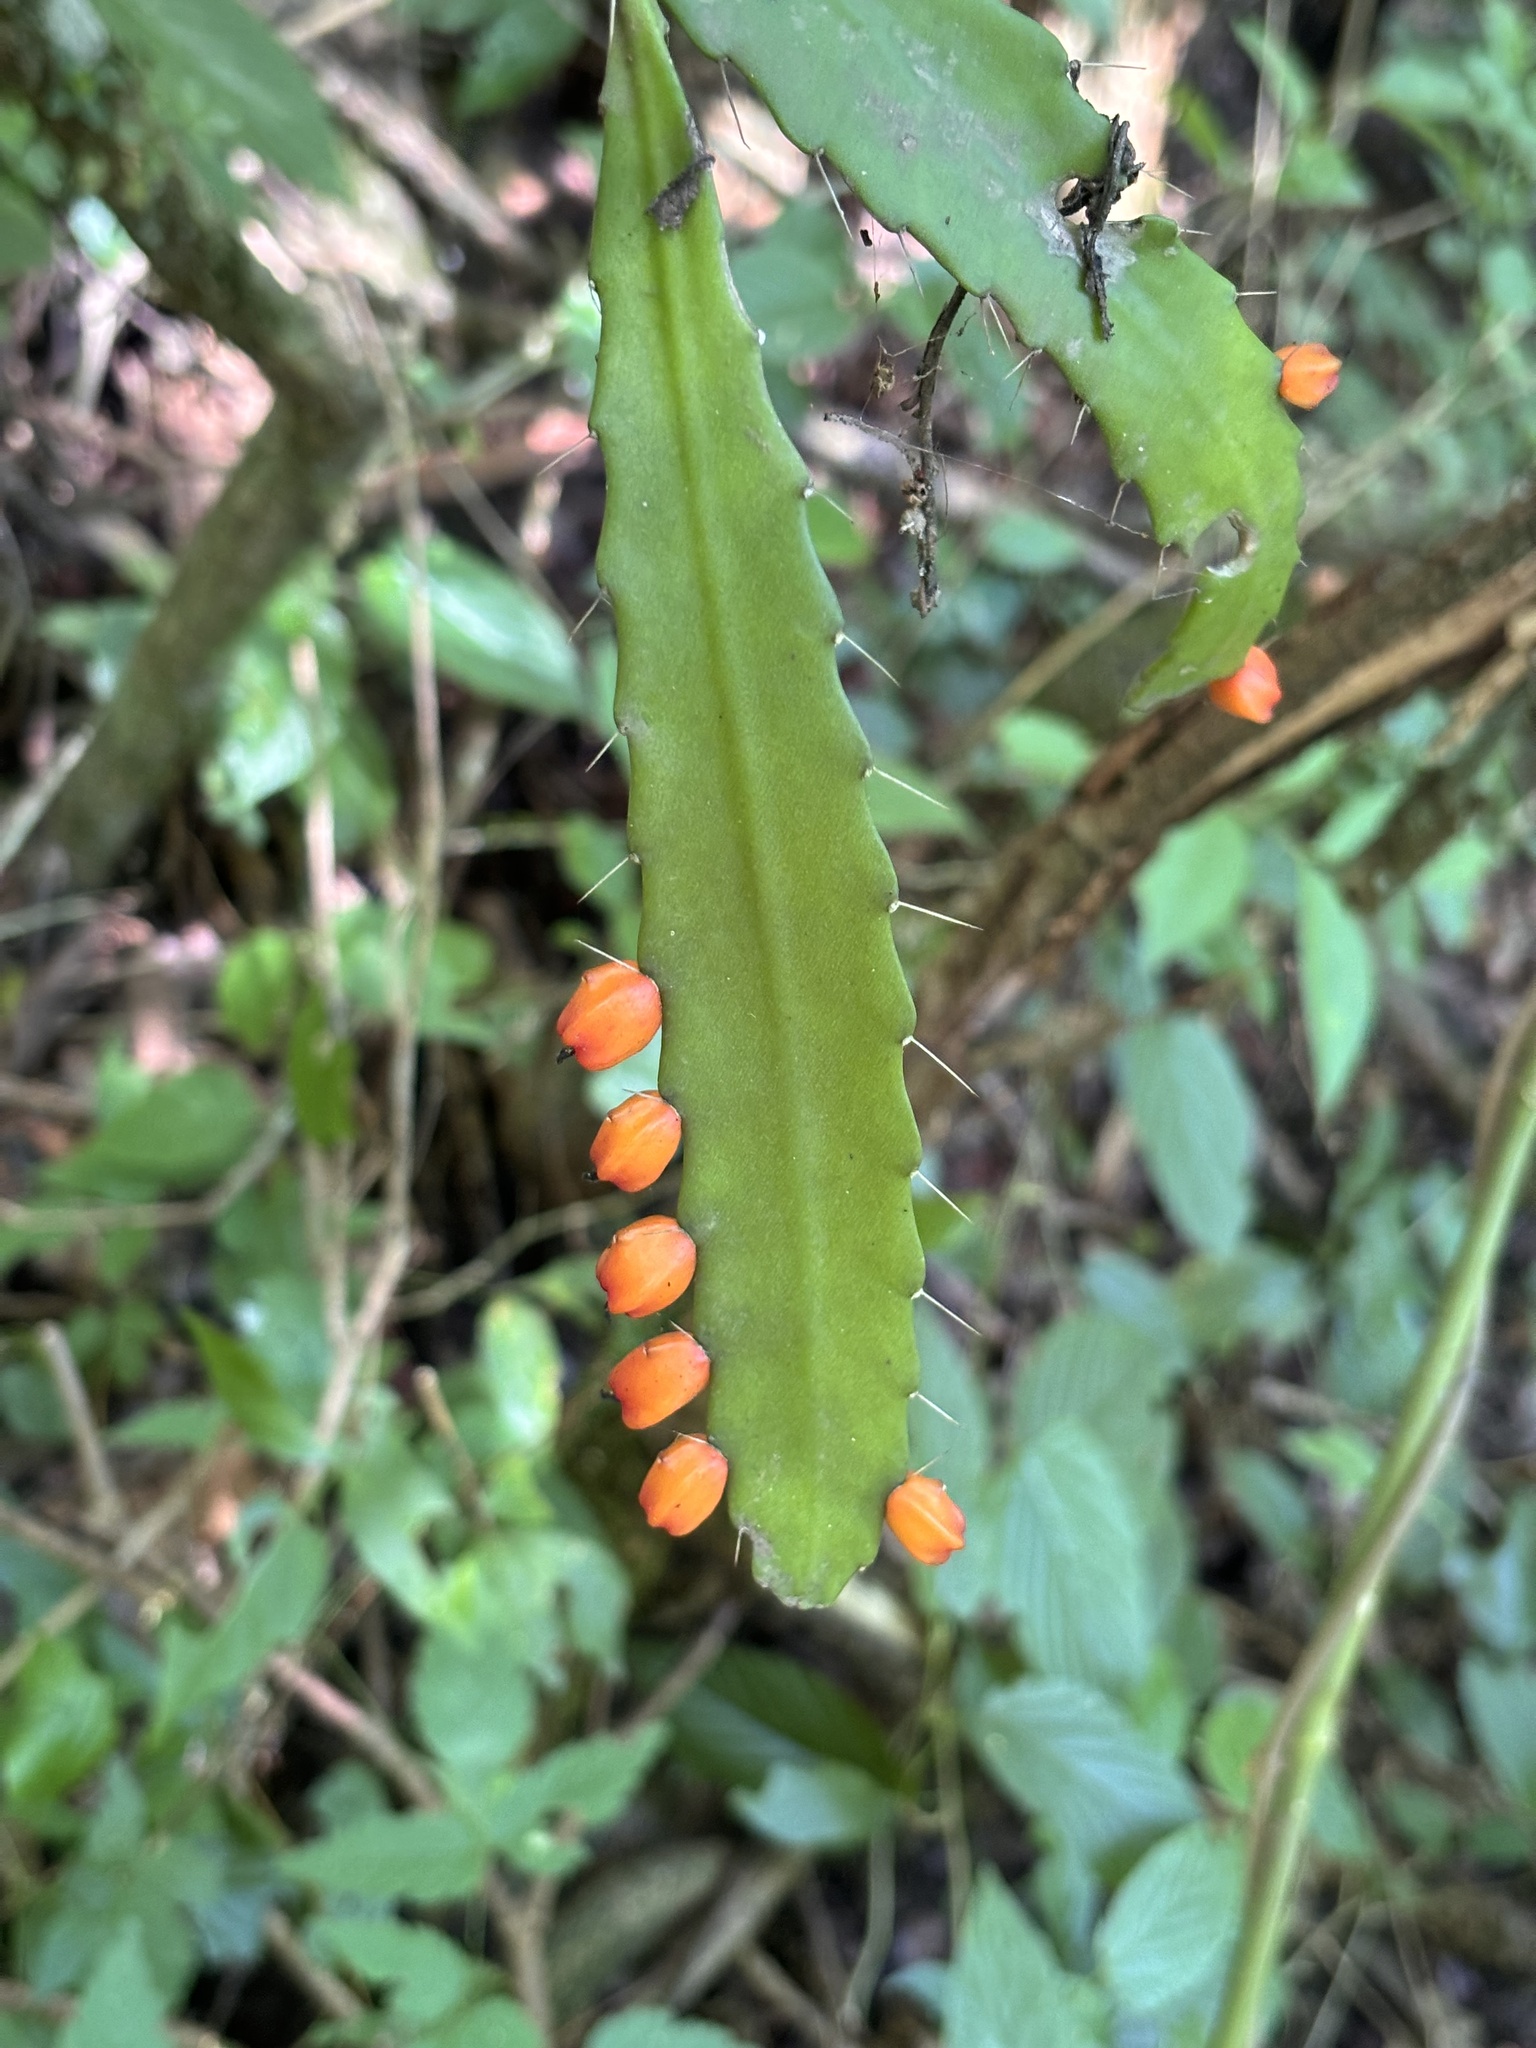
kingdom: Plantae
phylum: Tracheophyta
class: Magnoliopsida
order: Caryophyllales
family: Cactaceae
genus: Pfeiffera
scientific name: Pfeiffera monacantha
